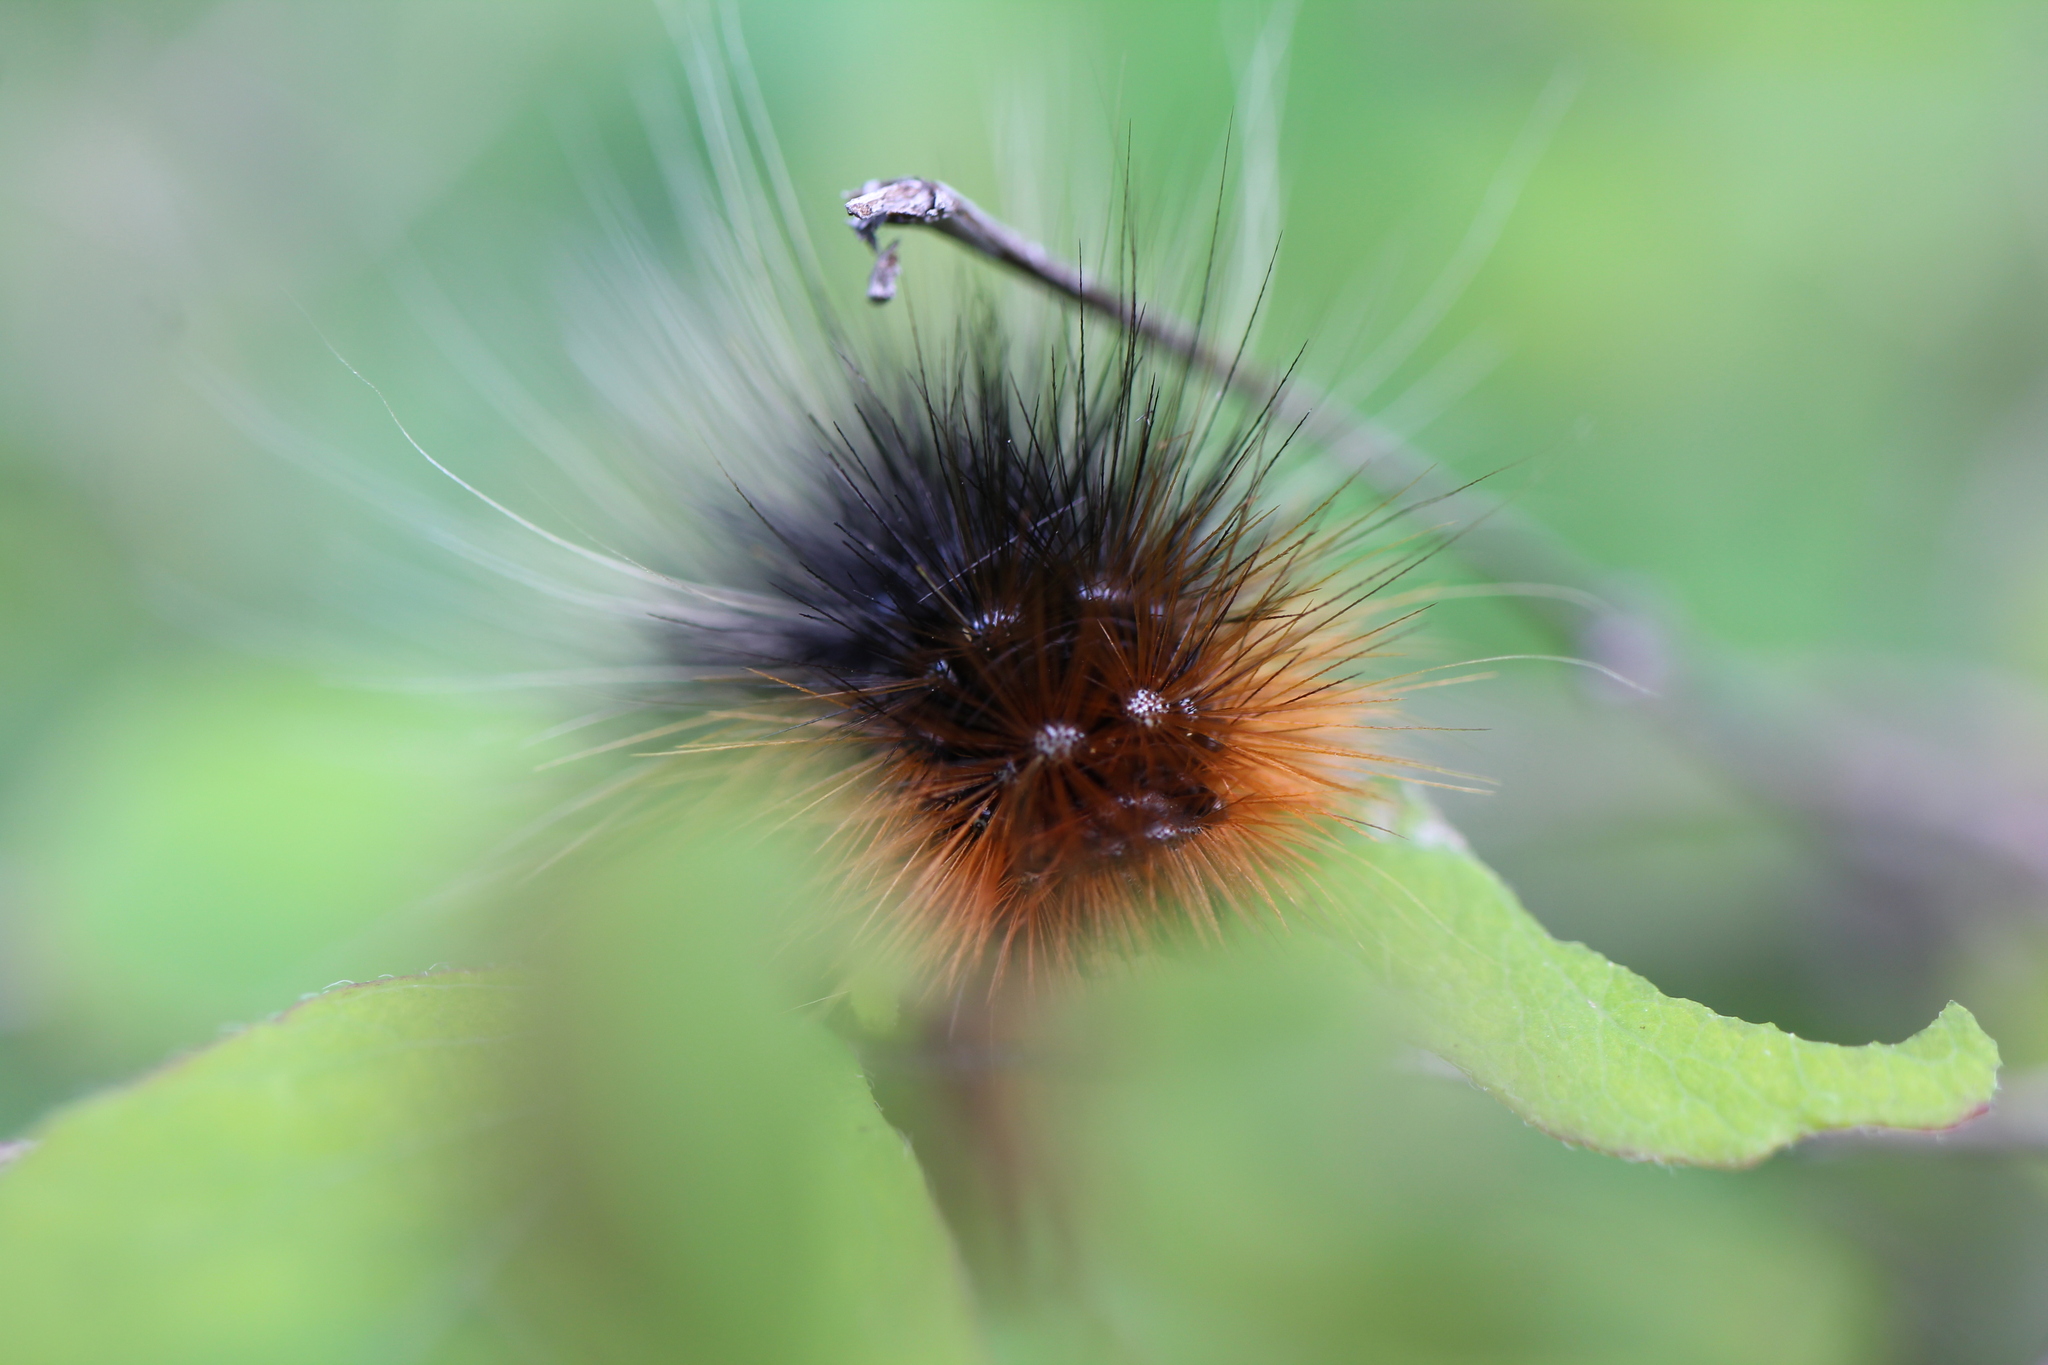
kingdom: Animalia
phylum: Arthropoda
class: Insecta
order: Lepidoptera
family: Erebidae
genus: Arctia
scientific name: Arctia tigrina
